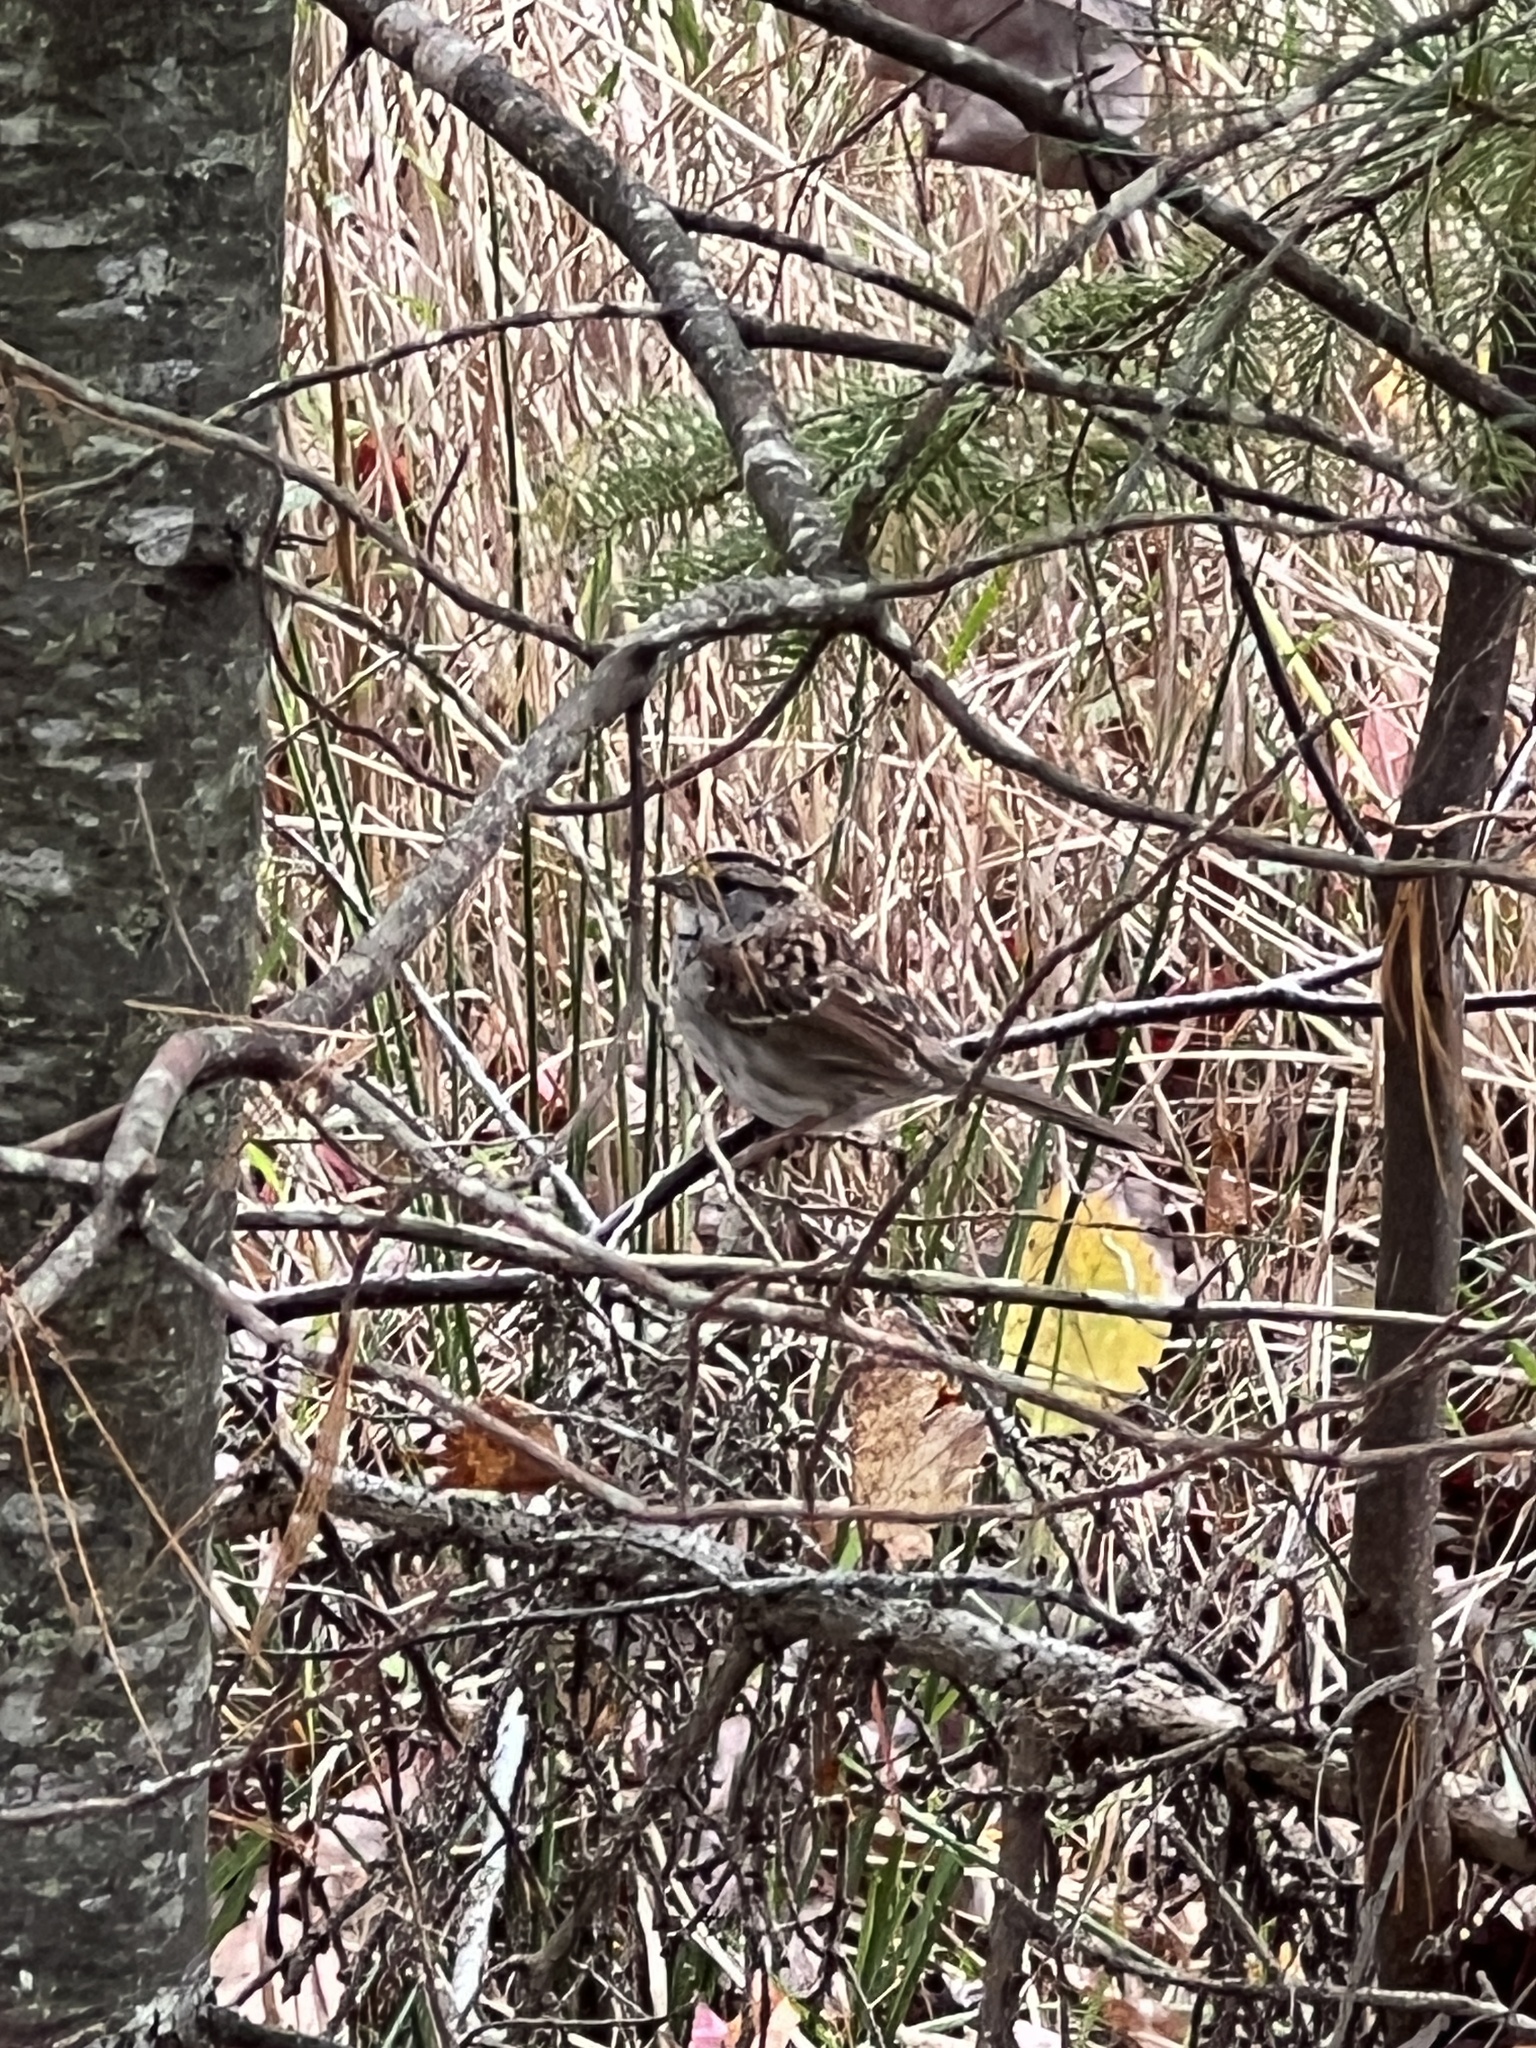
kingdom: Animalia
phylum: Chordata
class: Aves
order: Passeriformes
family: Passerellidae
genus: Zonotrichia
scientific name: Zonotrichia albicollis
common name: White-throated sparrow
